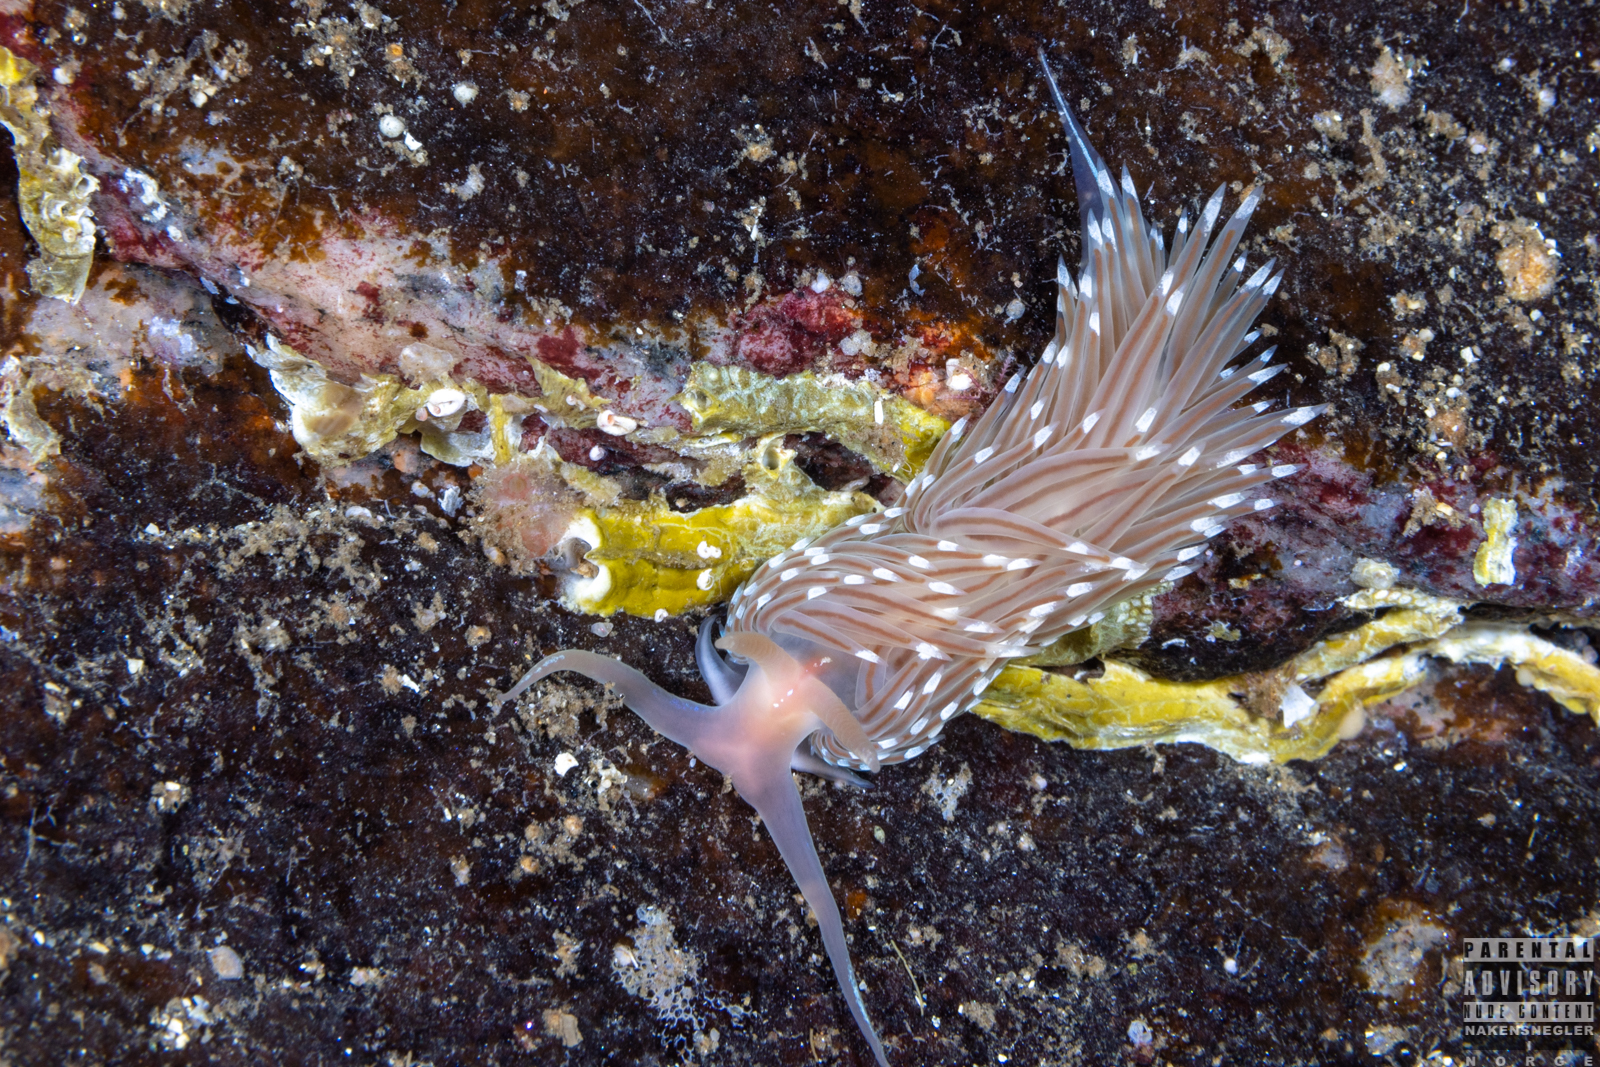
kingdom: Animalia
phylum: Mollusca
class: Gastropoda
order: Nudibranchia
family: Facelinidae
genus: Facelina
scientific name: Facelina bostoniensis
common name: Boston facelina
